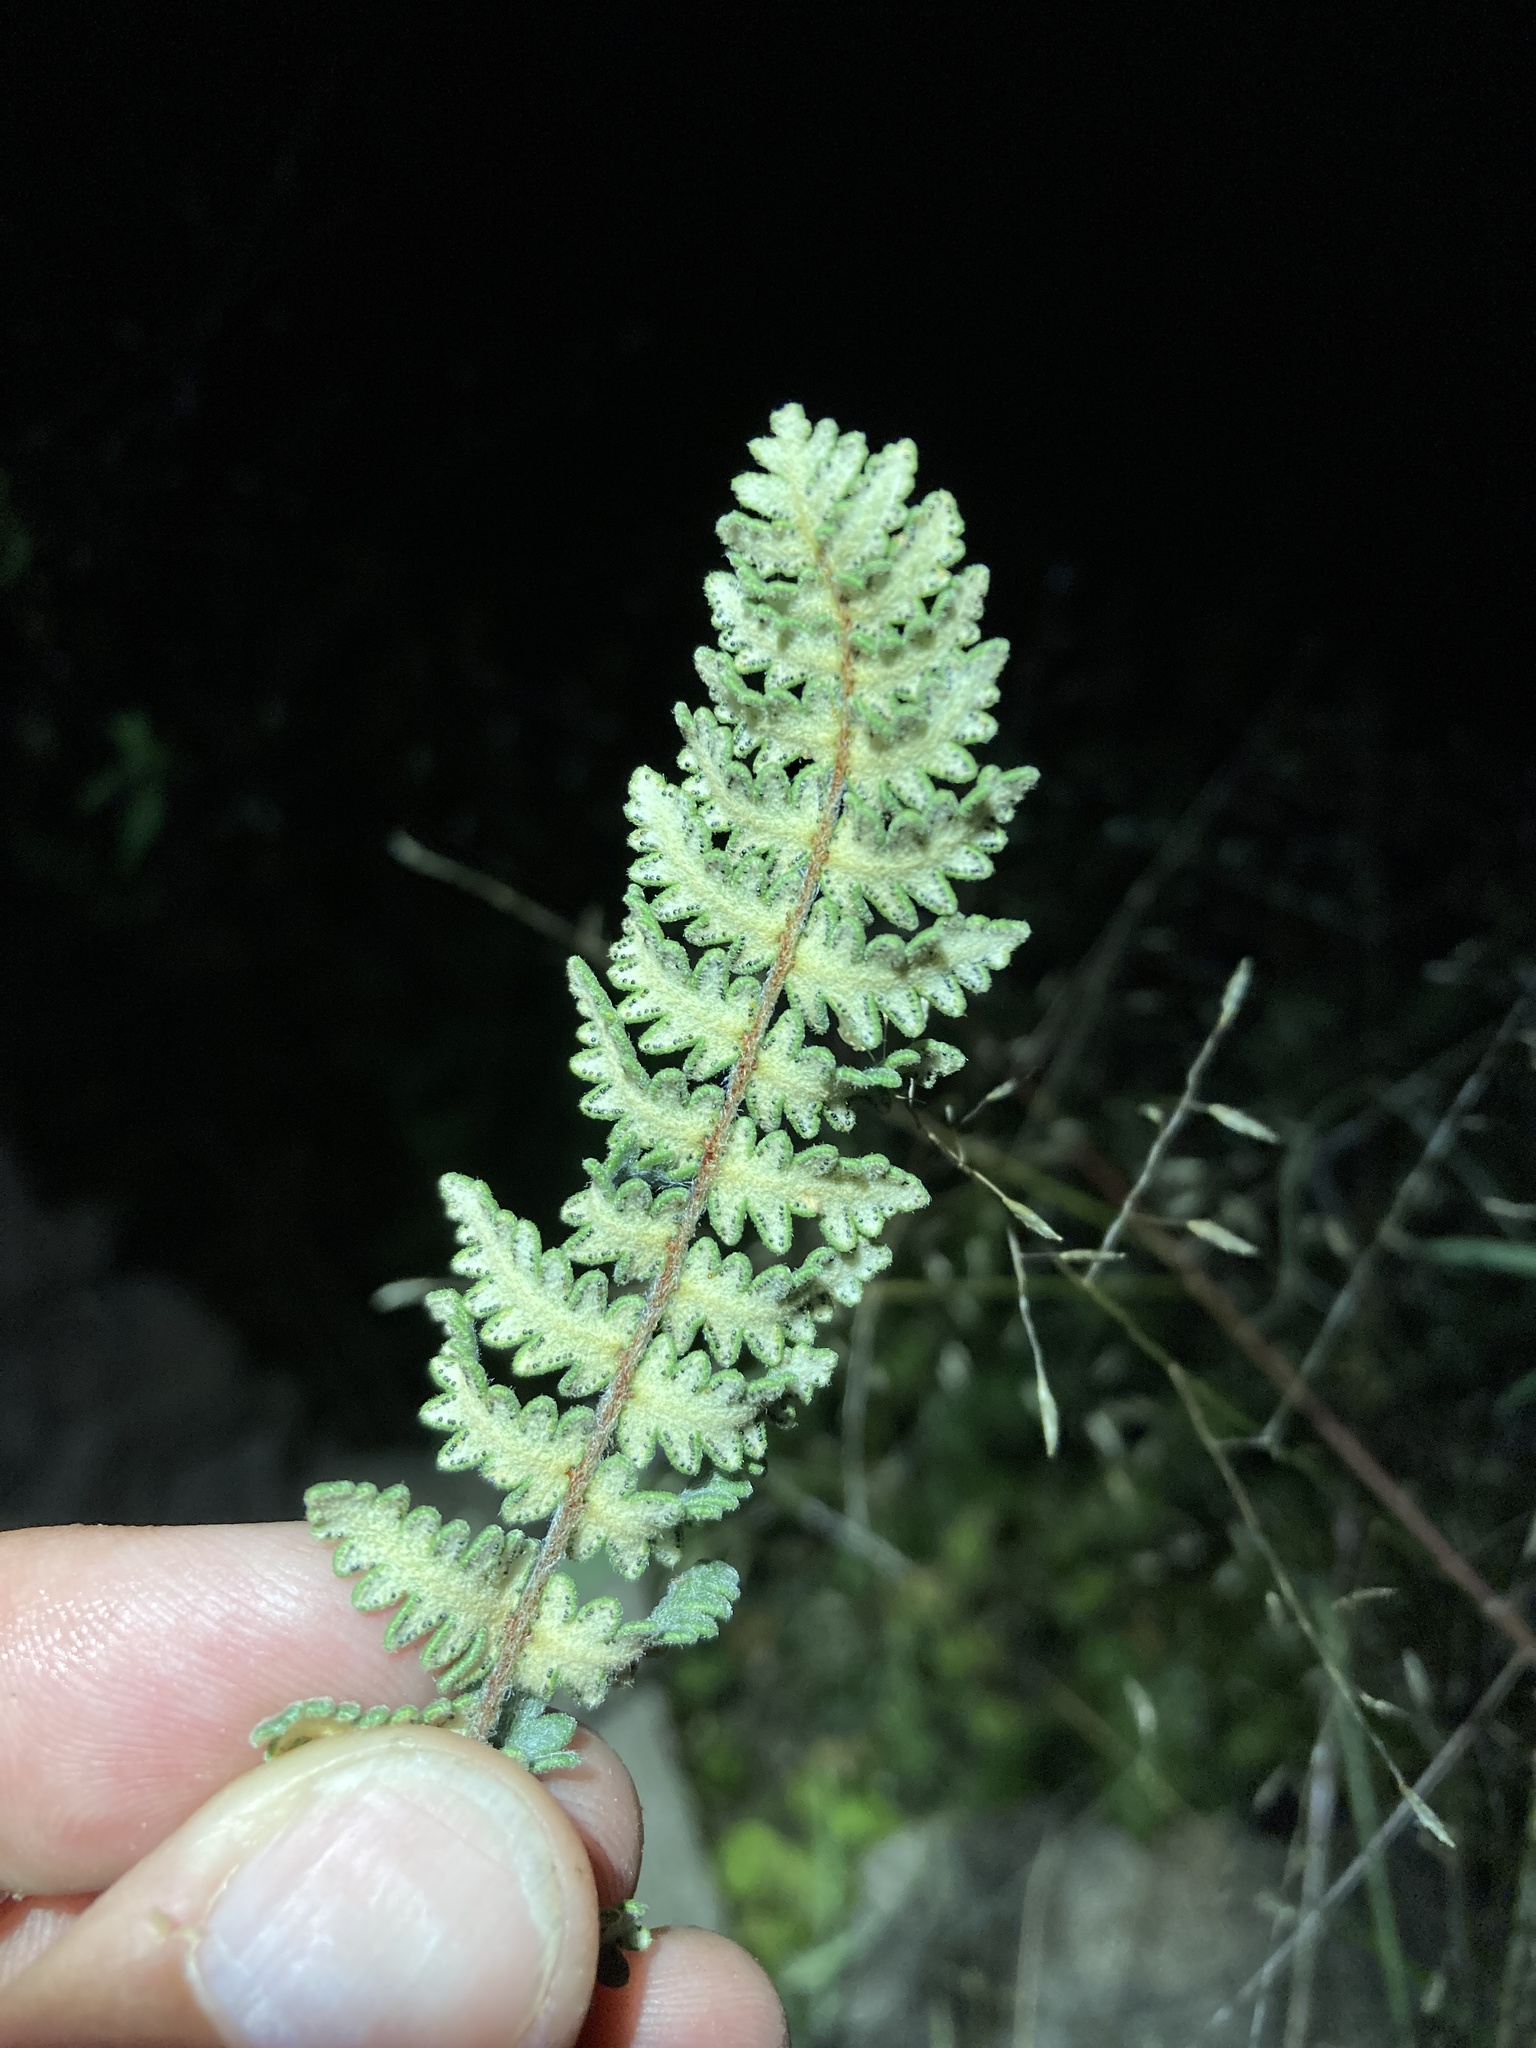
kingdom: Plantae
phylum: Tracheophyta
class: Polypodiopsida
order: Polypodiales
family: Pteridaceae
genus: Myriopteris
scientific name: Myriopteris aurea
